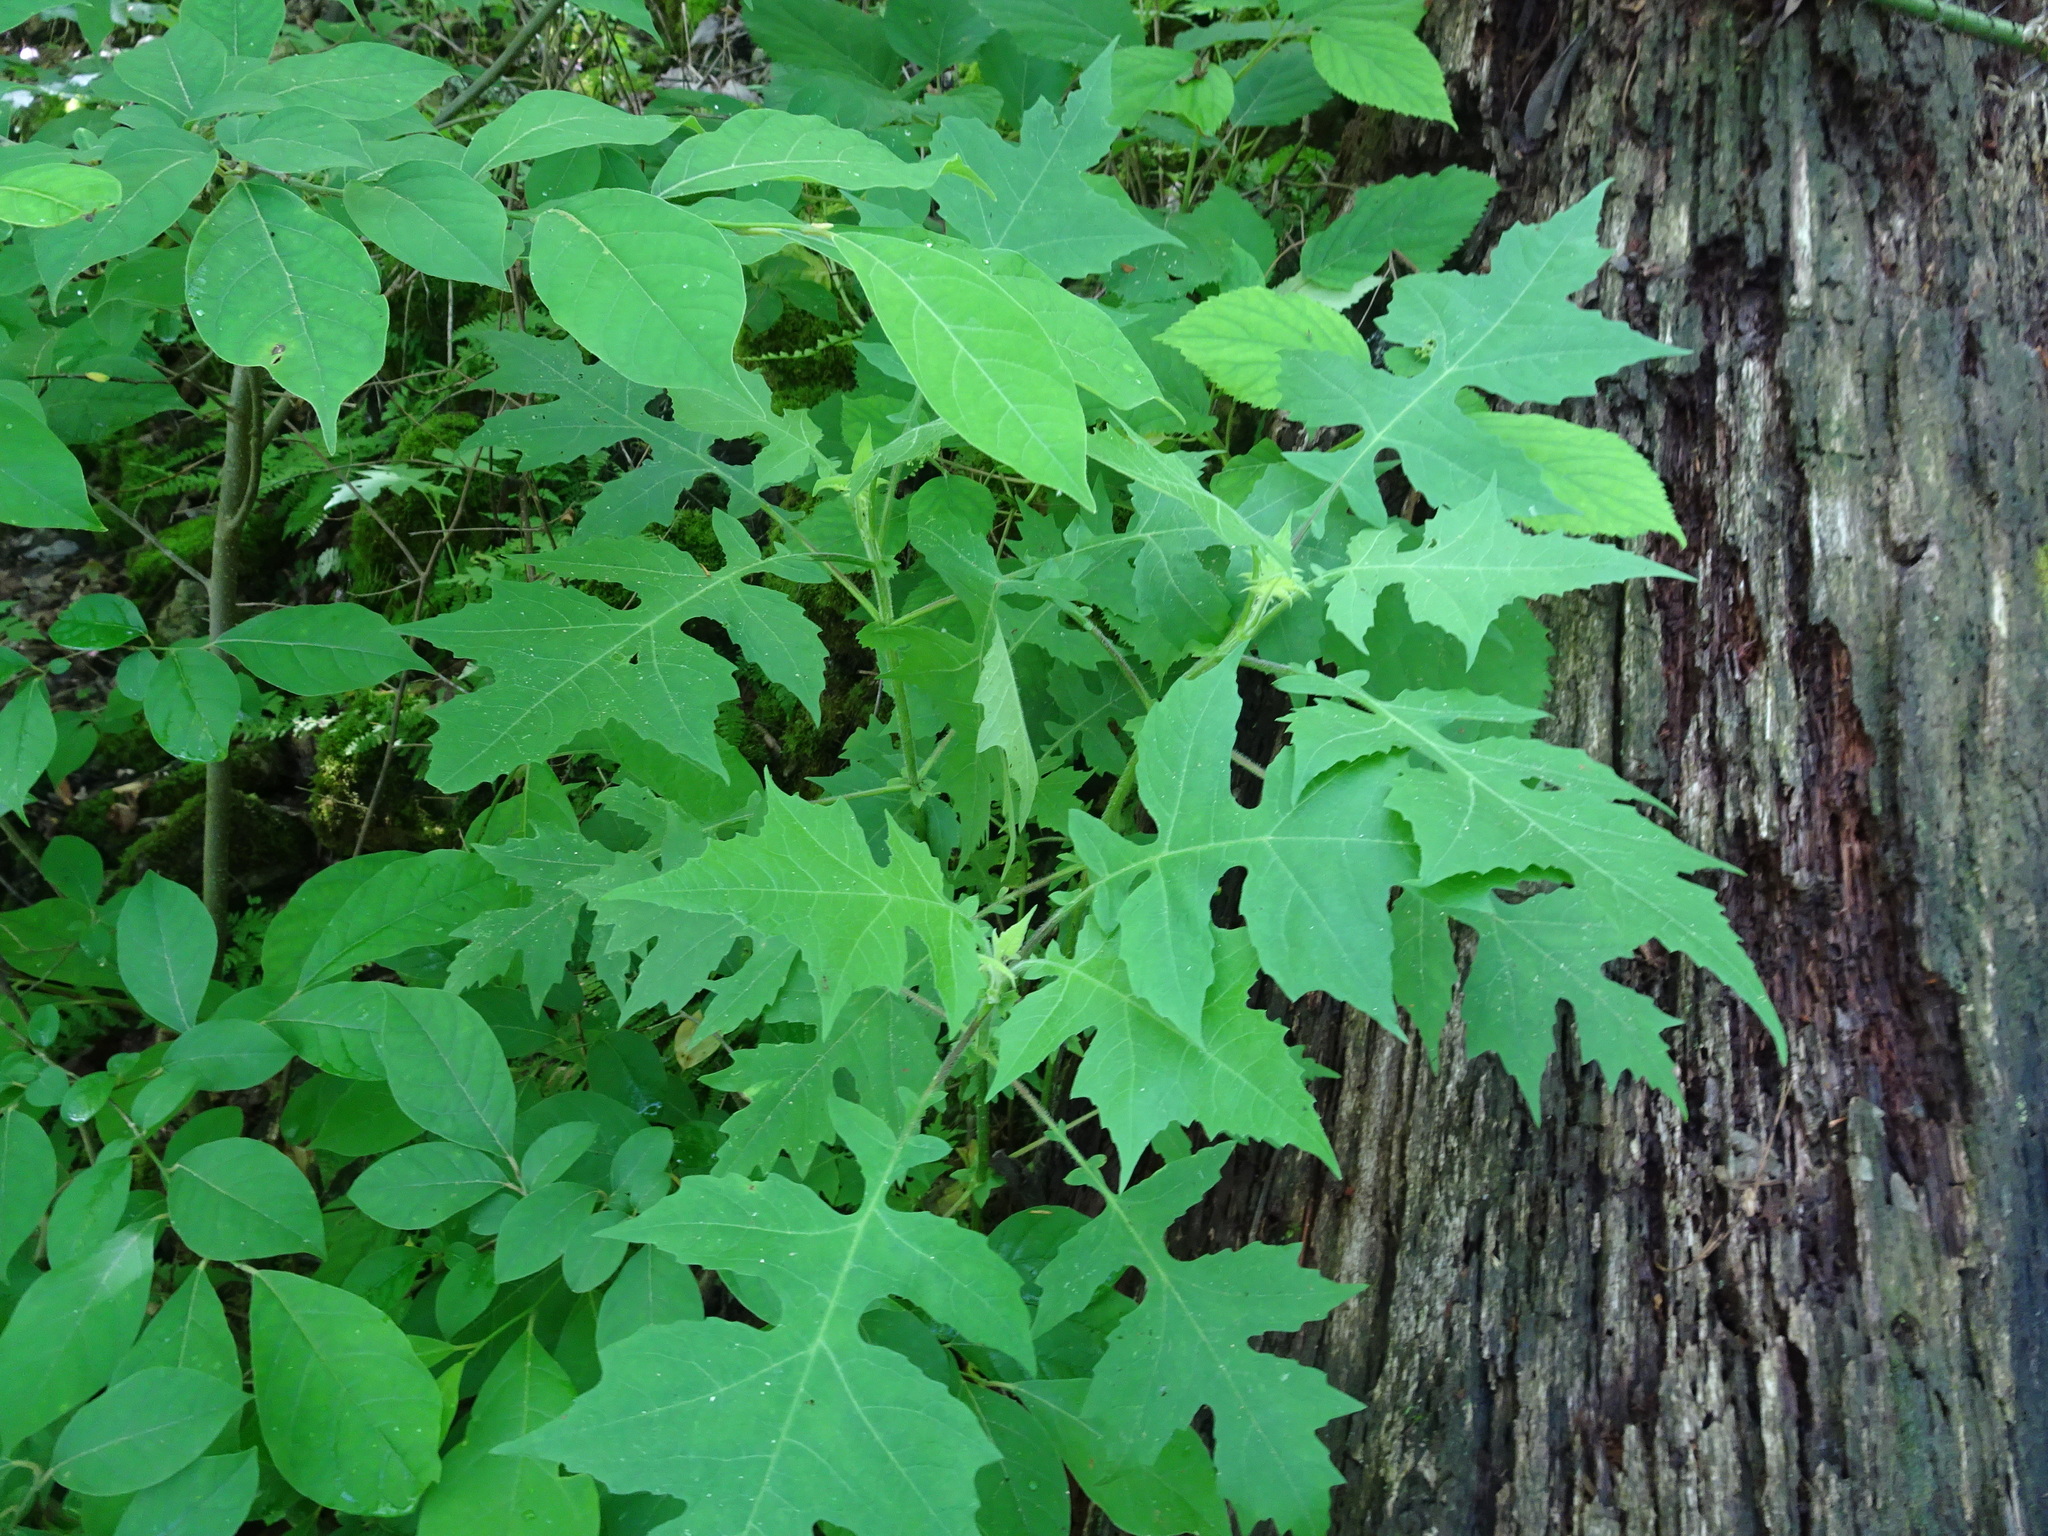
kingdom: Plantae
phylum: Tracheophyta
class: Magnoliopsida
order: Asterales
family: Asteraceae
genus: Polymnia
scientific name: Polymnia canadensis
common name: Pale-flowered leafcup
